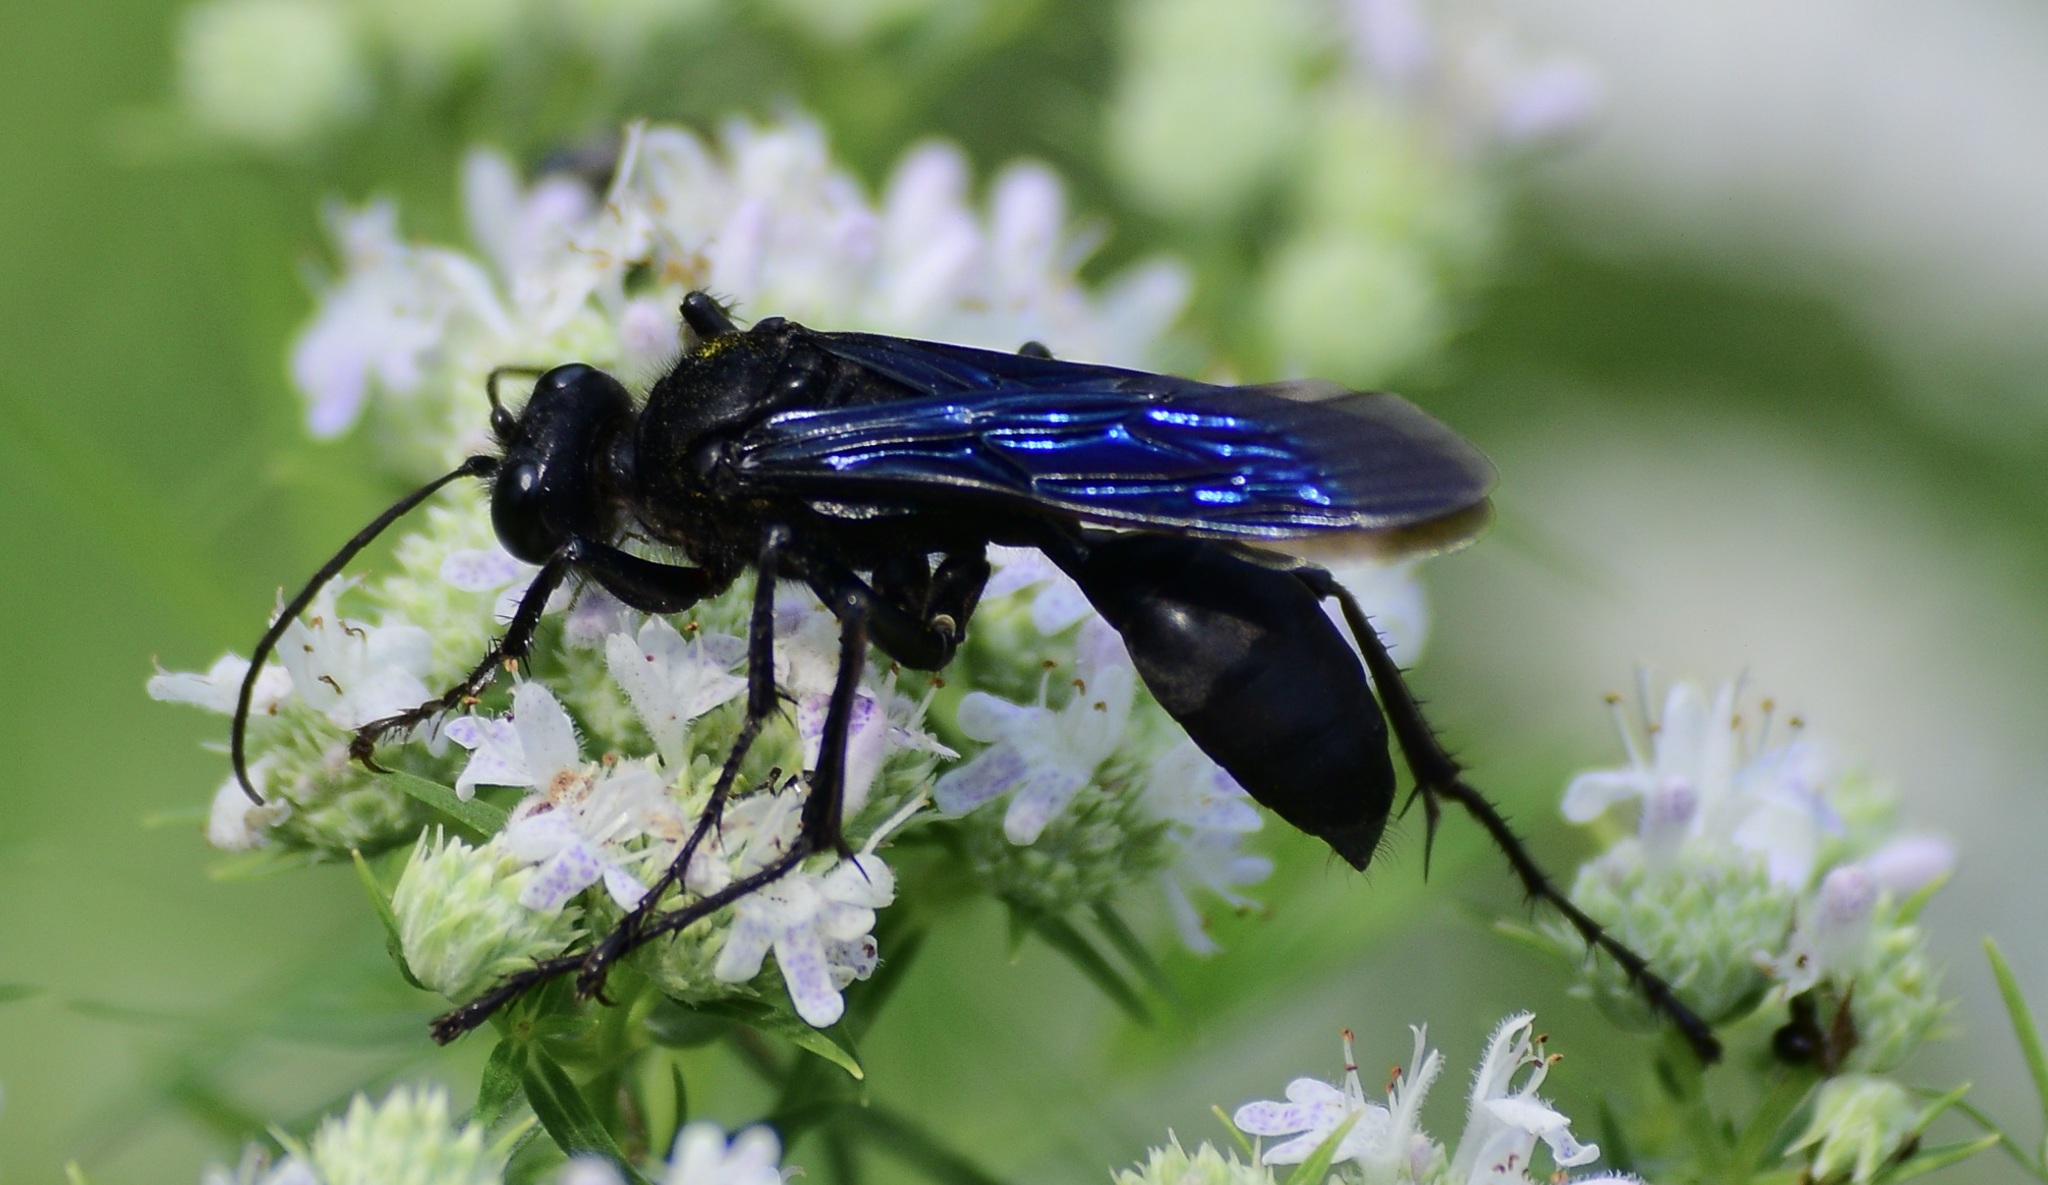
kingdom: Animalia
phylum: Arthropoda
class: Insecta
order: Hymenoptera
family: Sphecidae
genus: Sphex
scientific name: Sphex pensylvanicus
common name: Great black digger wasp
